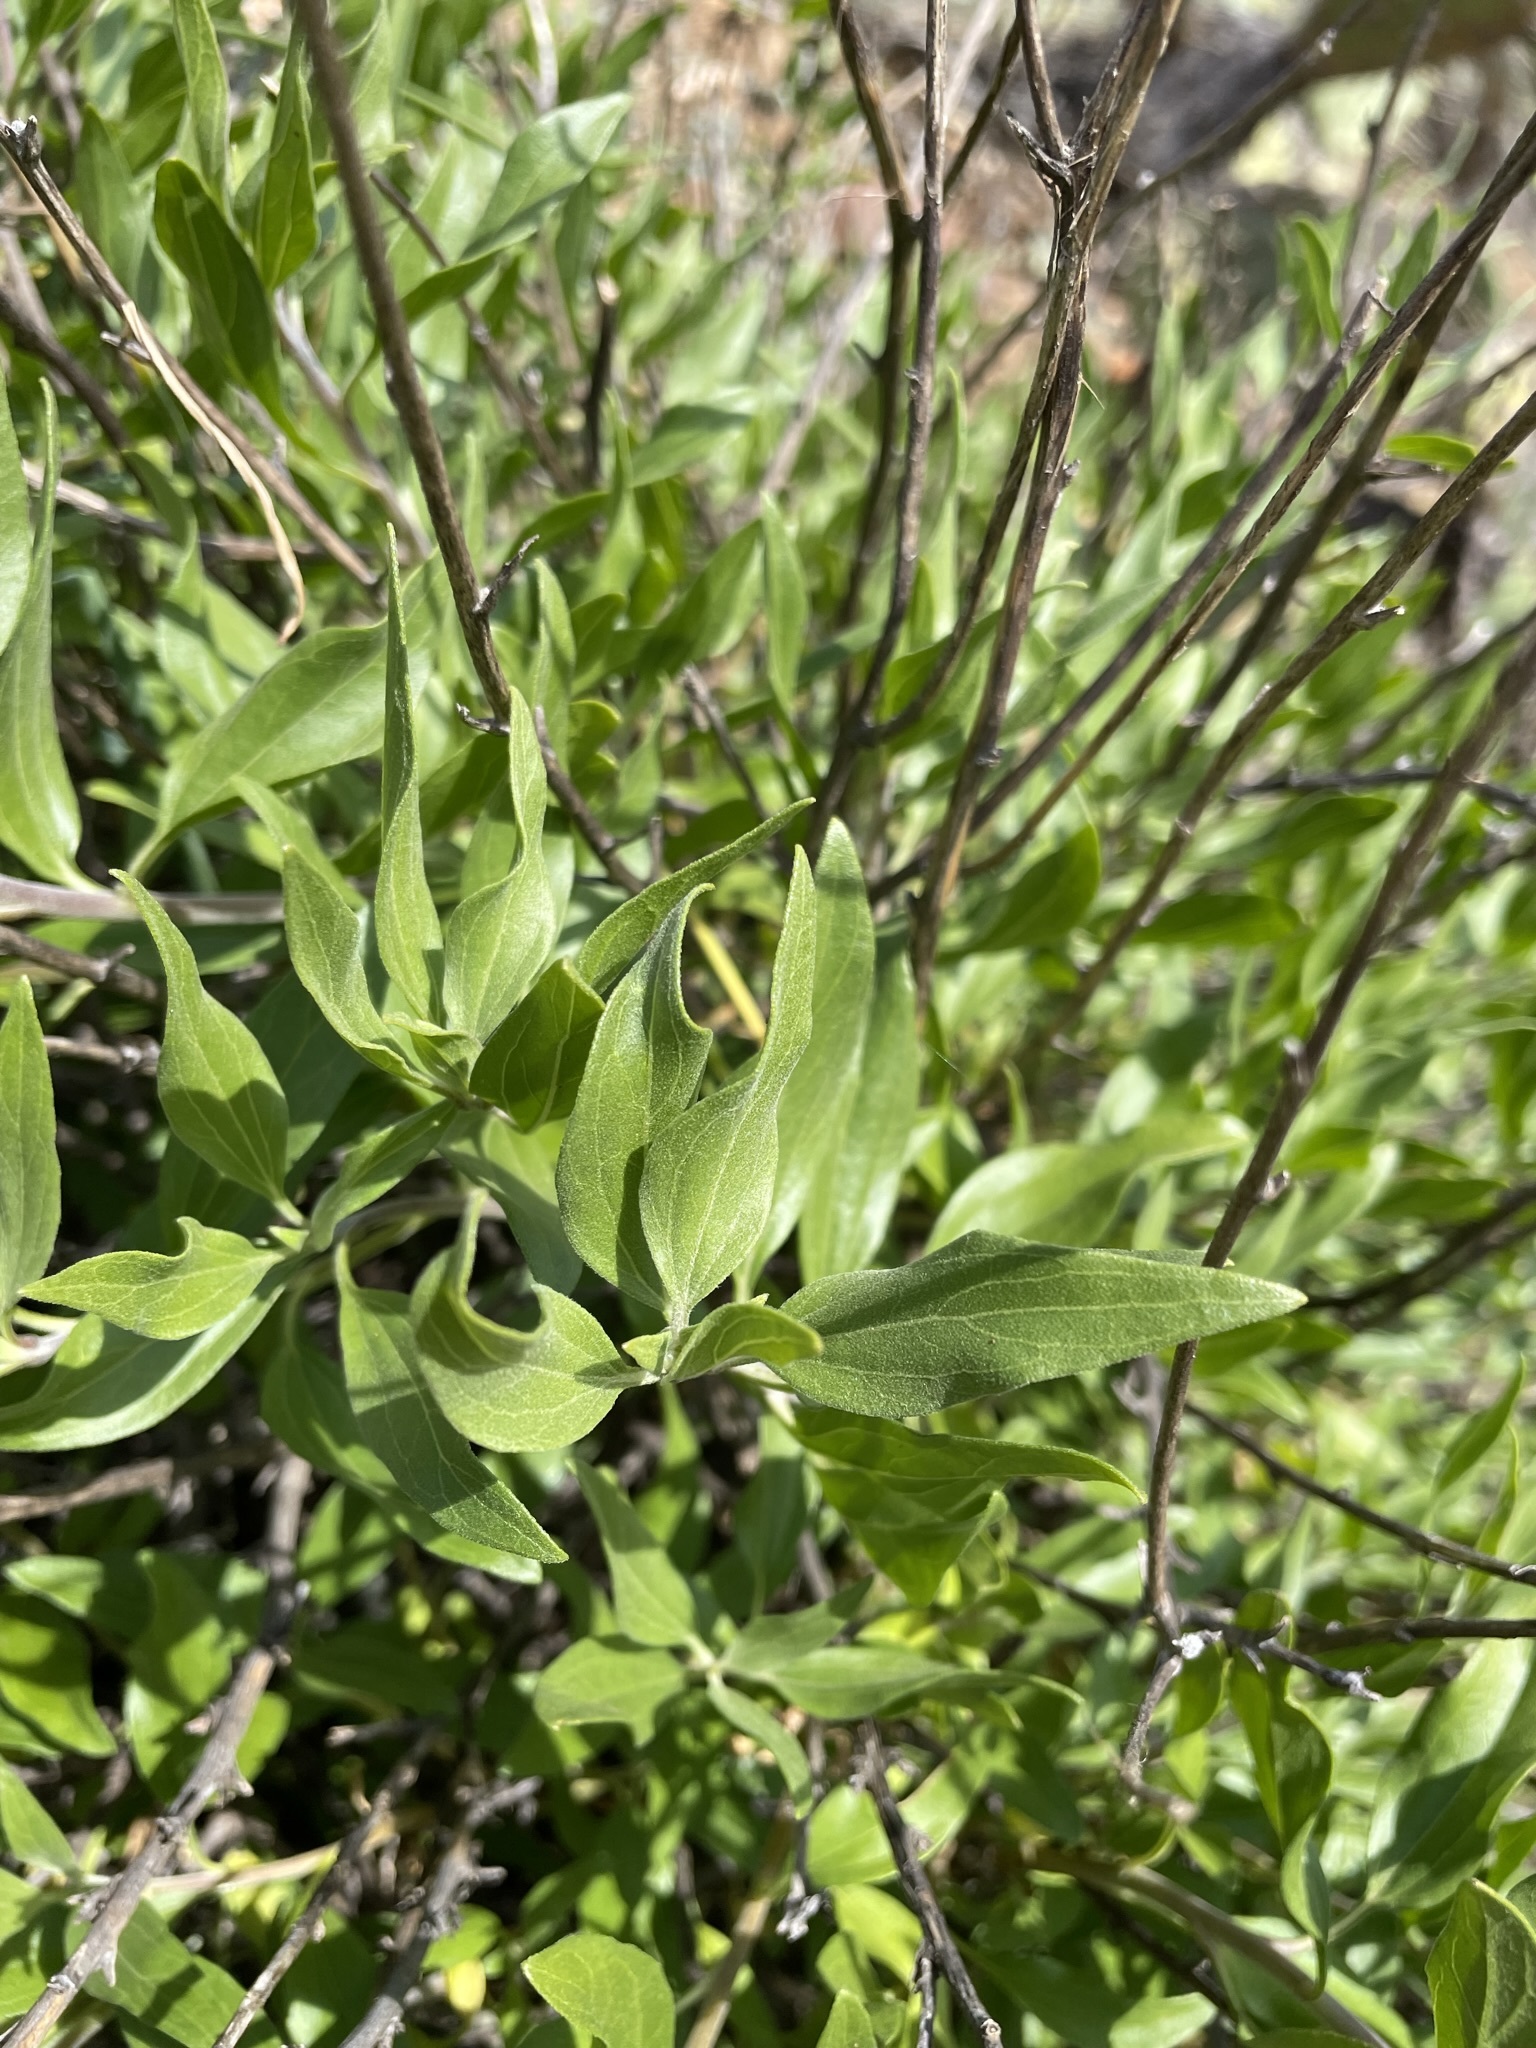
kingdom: Plantae
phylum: Tracheophyta
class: Magnoliopsida
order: Asterales
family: Asteraceae
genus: Encelia
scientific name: Encelia californica
